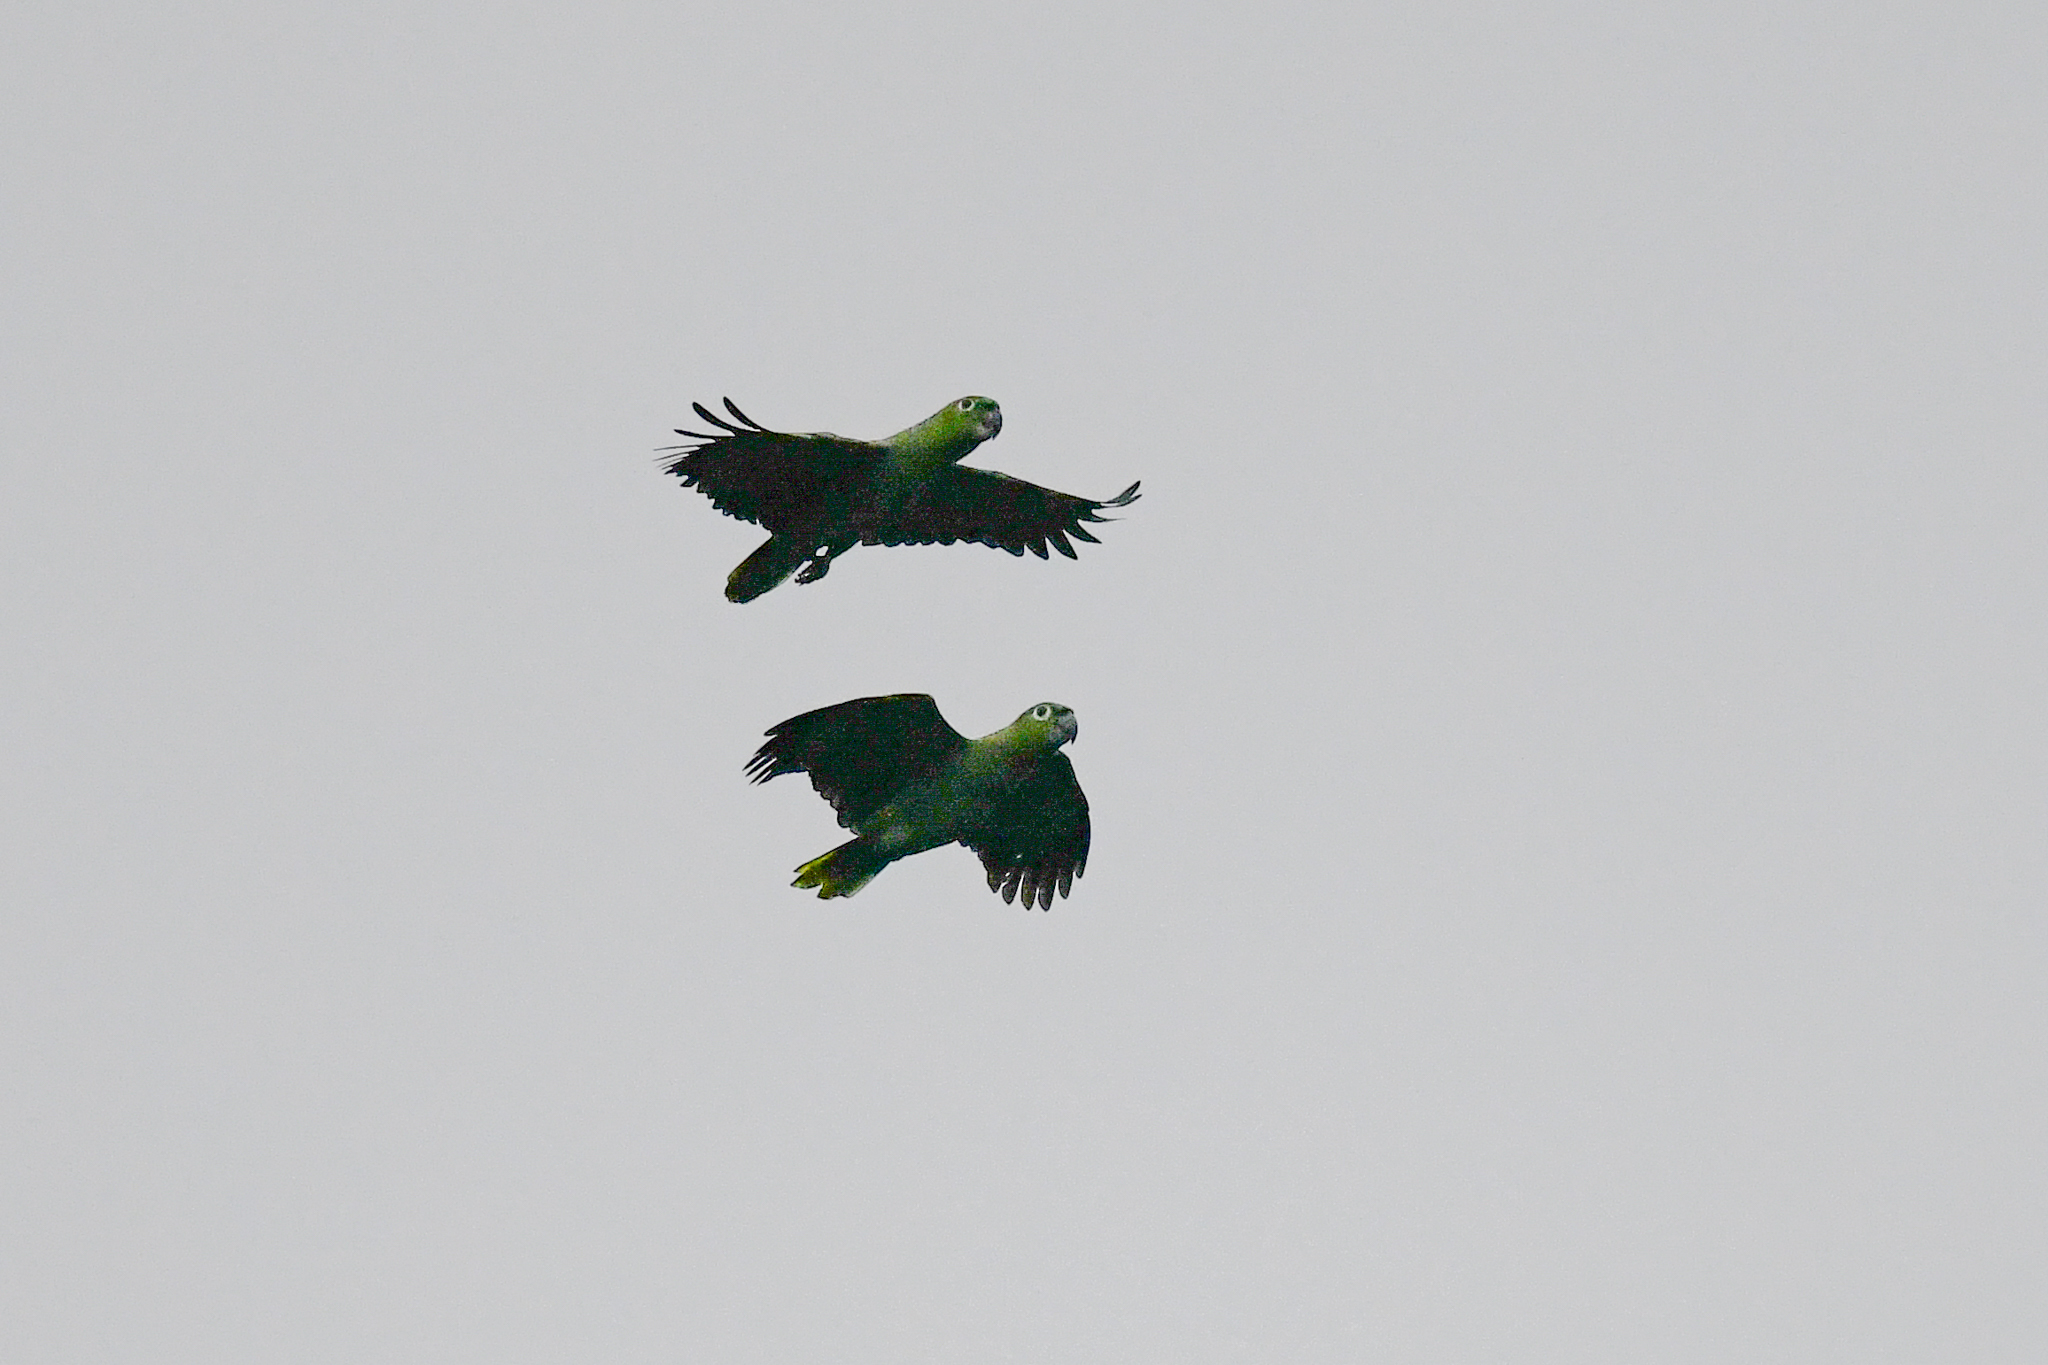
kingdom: Animalia
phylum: Chordata
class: Aves
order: Psittaciformes
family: Psittacidae
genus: Amazona
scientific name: Amazona farinosa
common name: Mealy parrot
